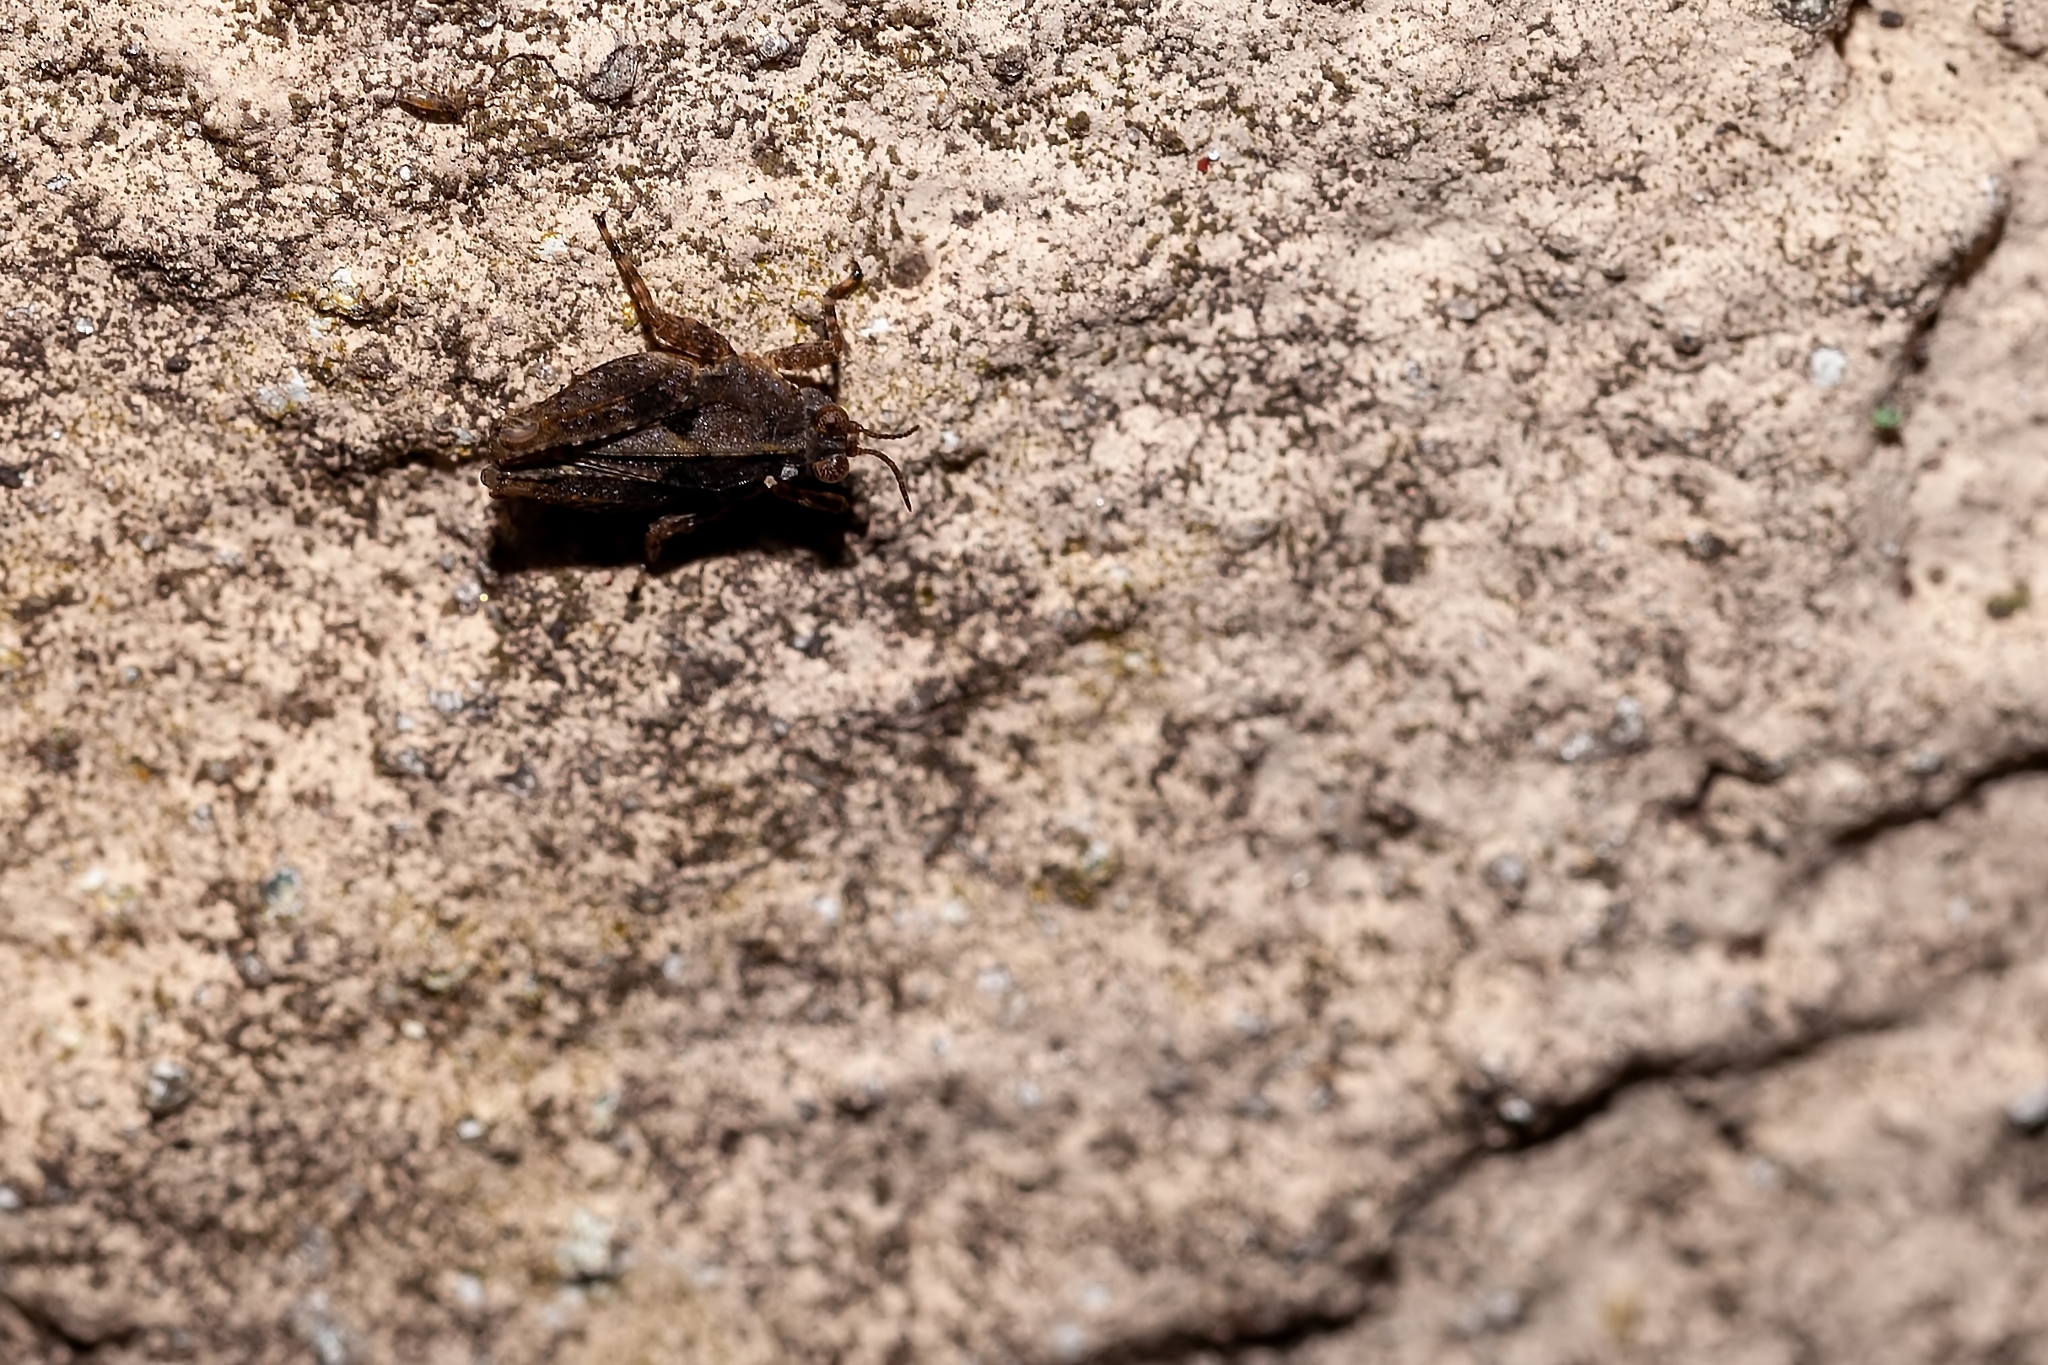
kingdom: Animalia
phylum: Arthropoda
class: Insecta
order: Orthoptera
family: Tetrigidae
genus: Paratettix
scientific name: Paratettix mexicanus
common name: Mexican pygmy grasshopper
